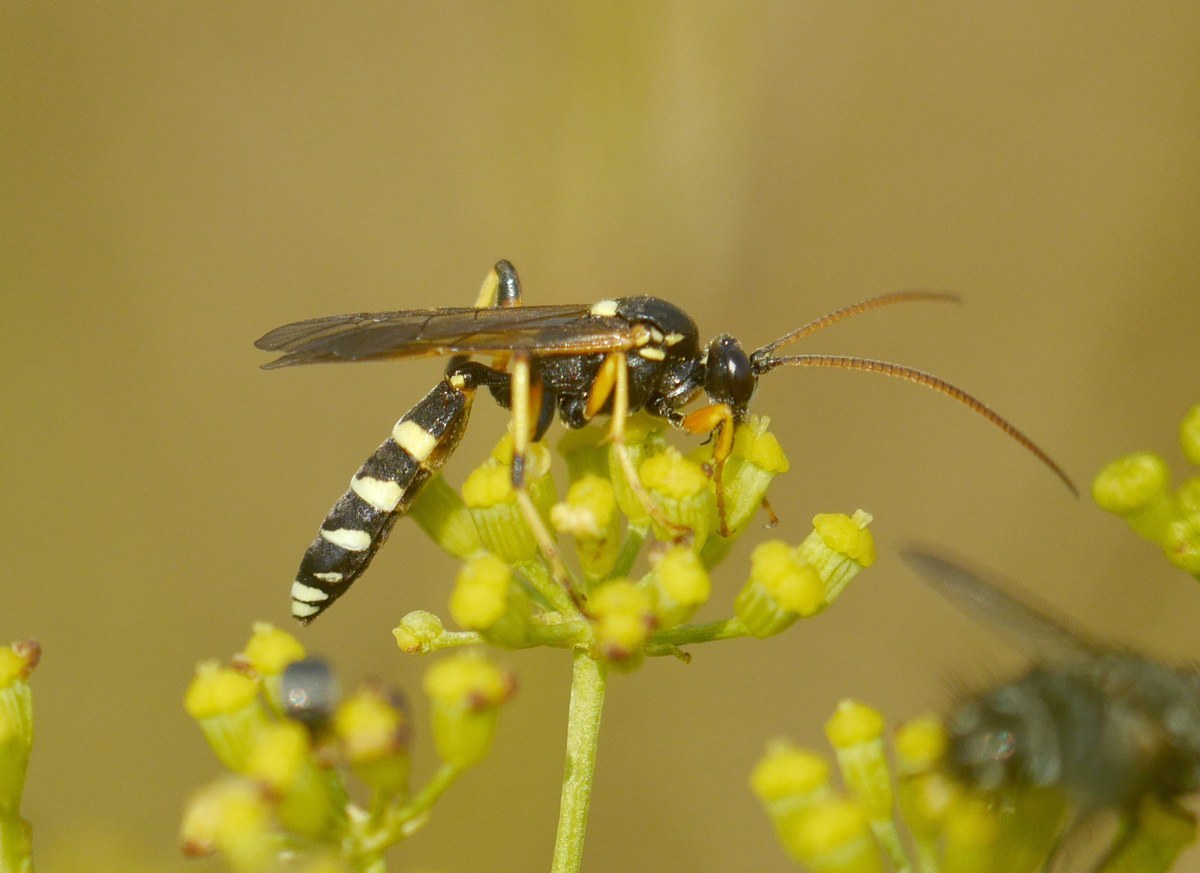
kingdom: Animalia
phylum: Arthropoda
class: Insecta
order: Hymenoptera
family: Ichneumonidae
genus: Ichneumon
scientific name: Ichneumon sarcitorius
